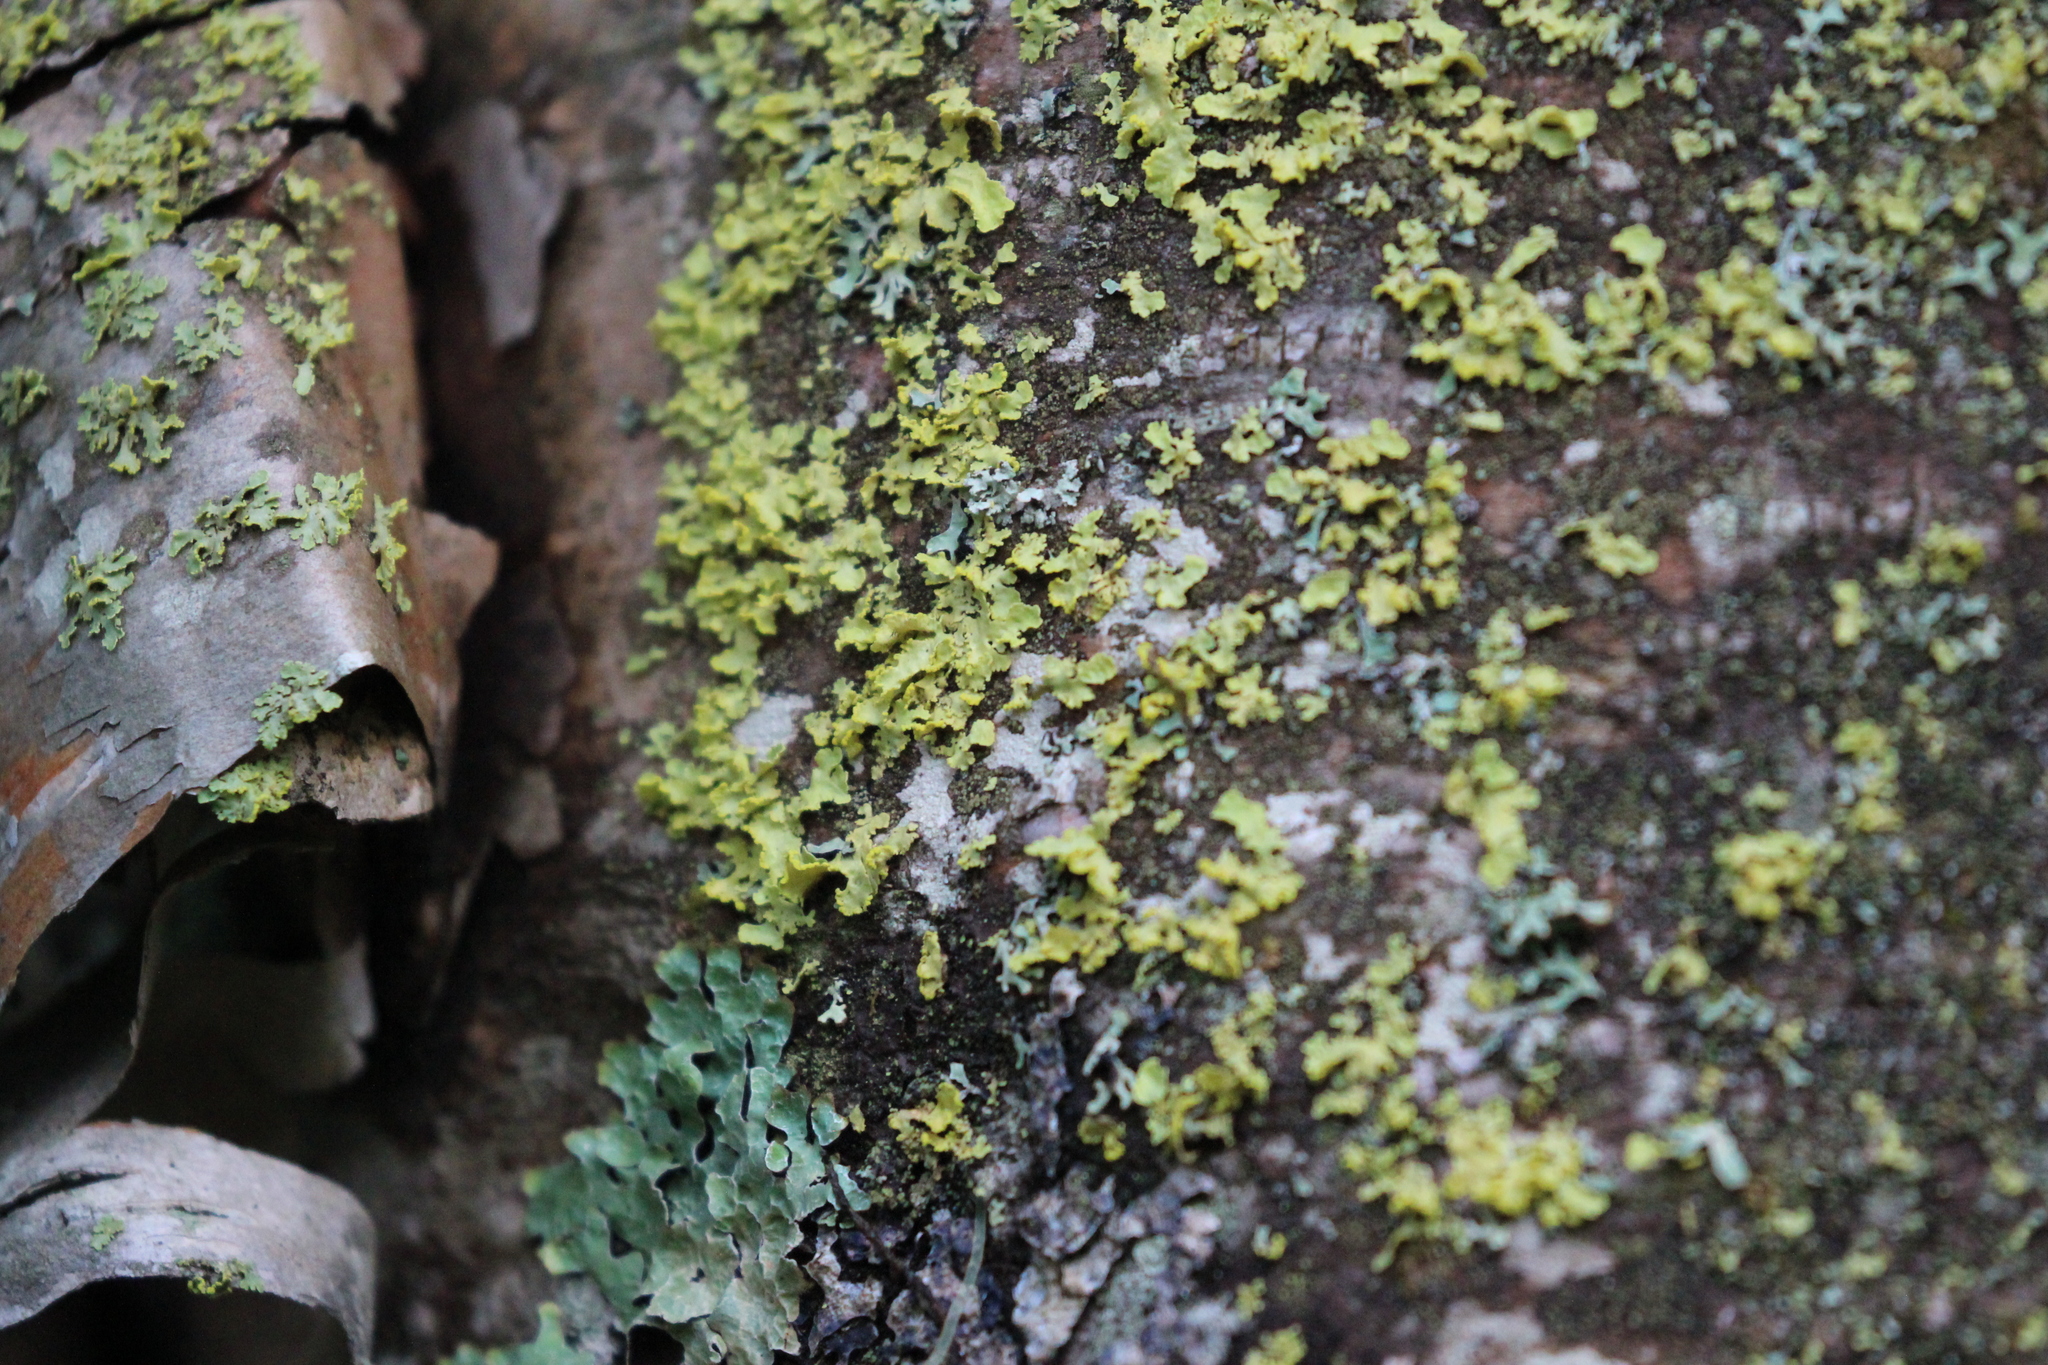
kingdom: Fungi
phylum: Ascomycota
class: Lecanoromycetes
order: Lecanorales
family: Parmeliaceae
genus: Vulpicida
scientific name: Vulpicida pinastri
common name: Powdered sunshine lichen
